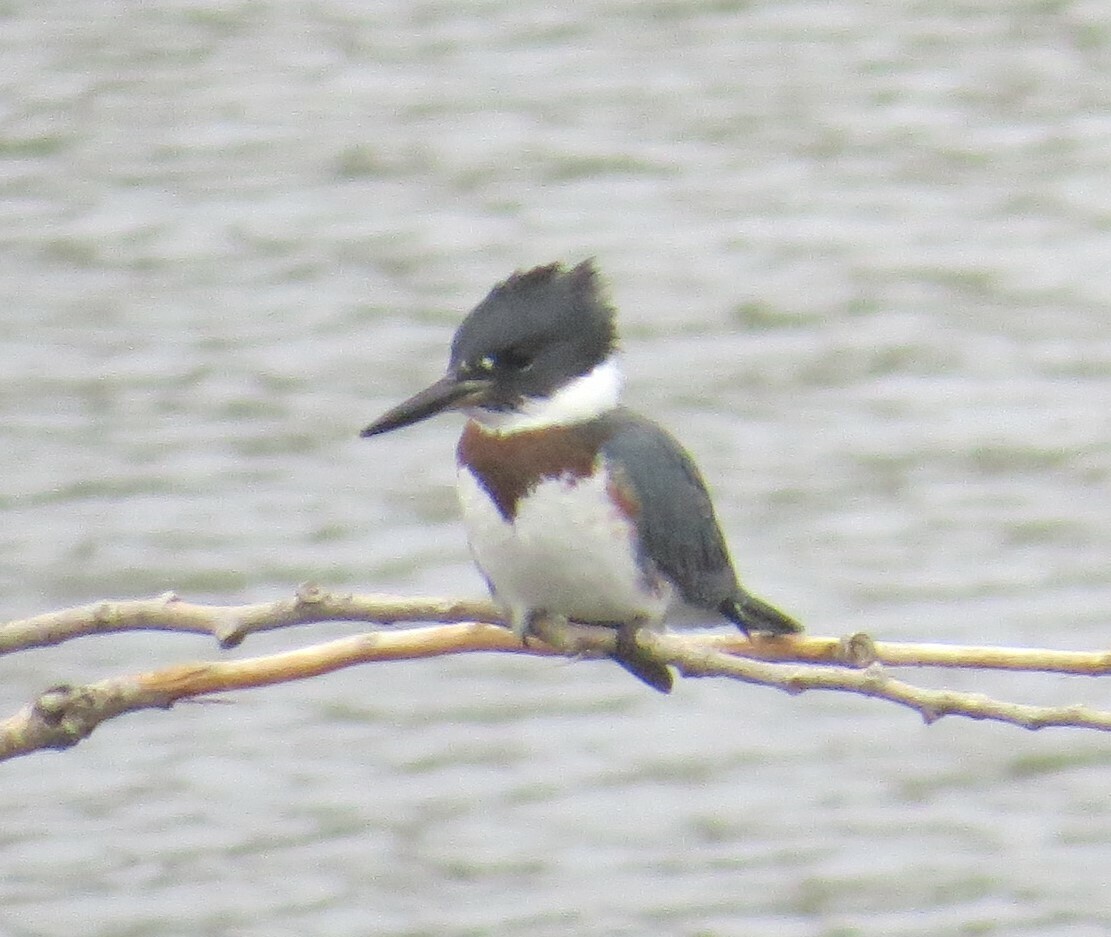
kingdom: Animalia
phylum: Chordata
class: Aves
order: Coraciiformes
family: Alcedinidae
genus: Megaceryle
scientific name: Megaceryle alcyon
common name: Belted kingfisher
